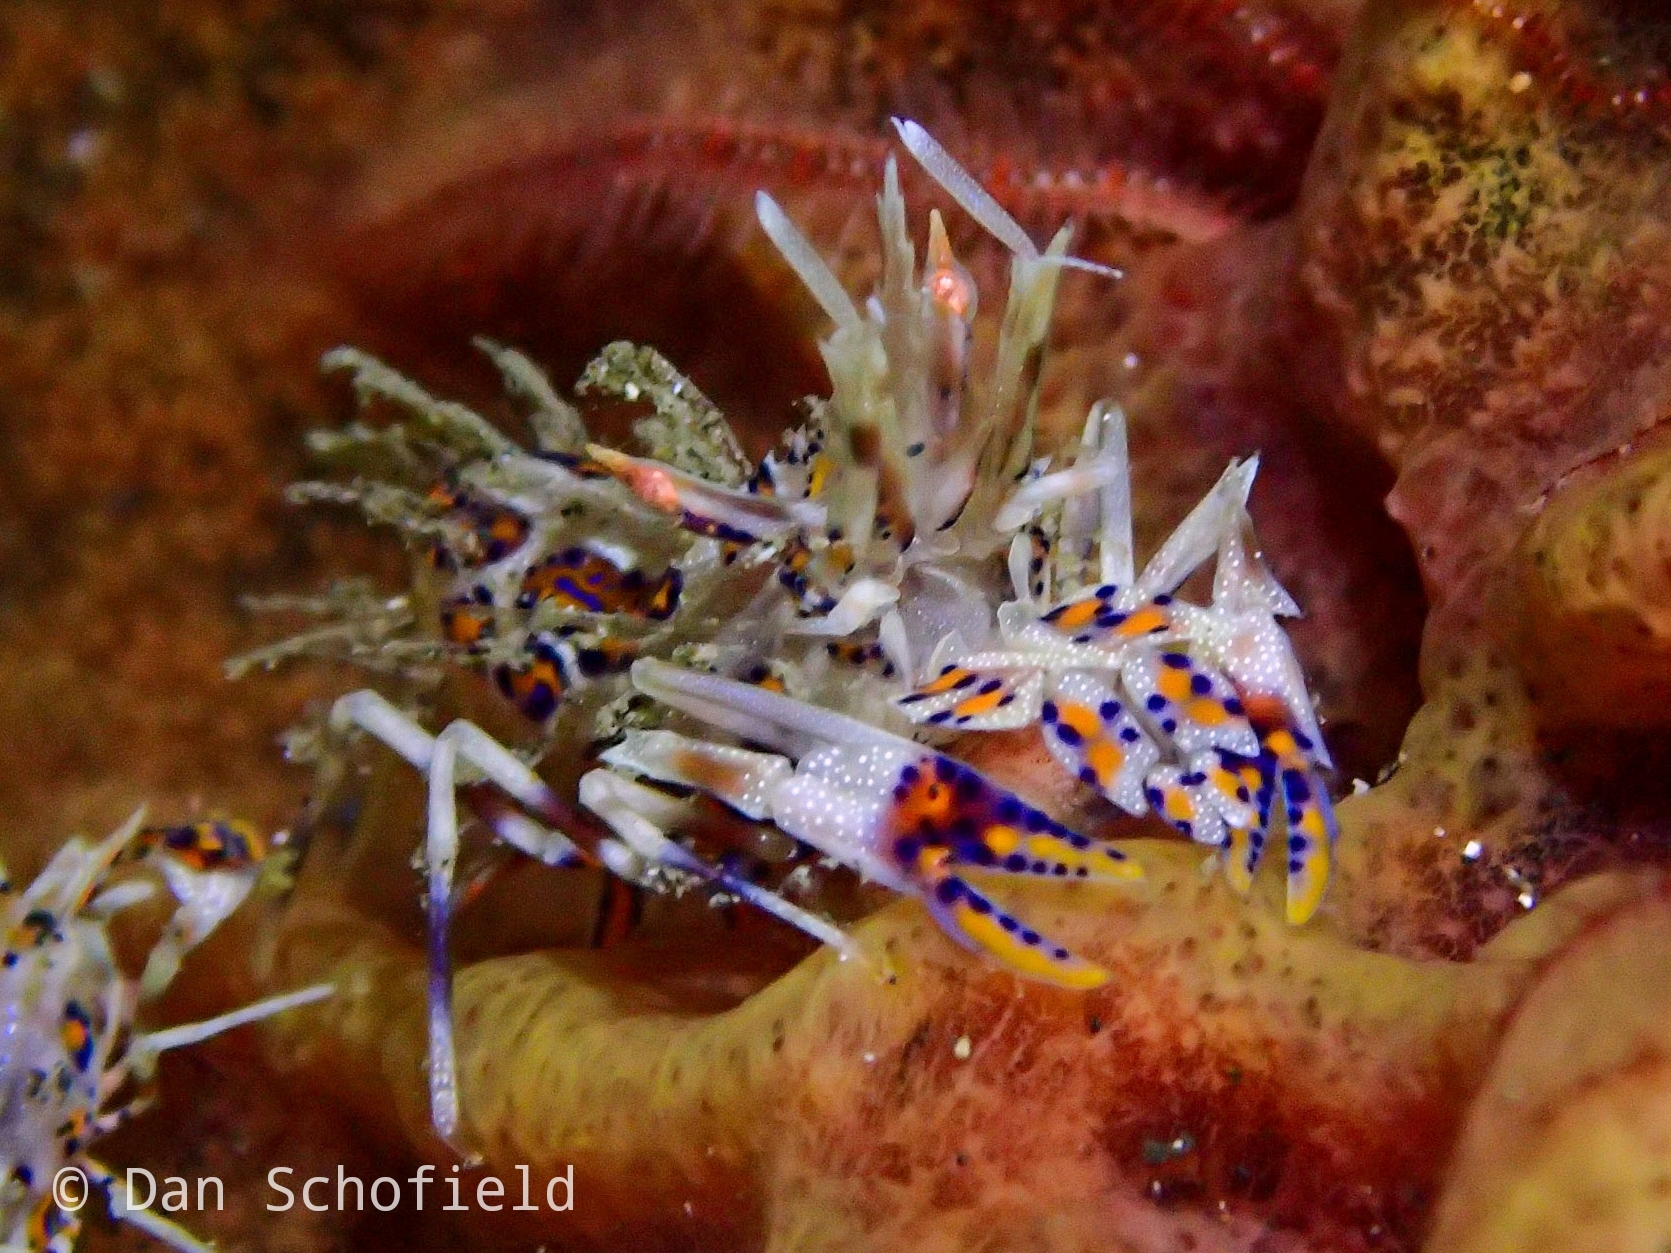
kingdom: Animalia
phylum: Arthropoda
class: Malacostraca
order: Decapoda
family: Palaemonidae
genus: Phyllognathia
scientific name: Phyllognathia ceratophthalma
